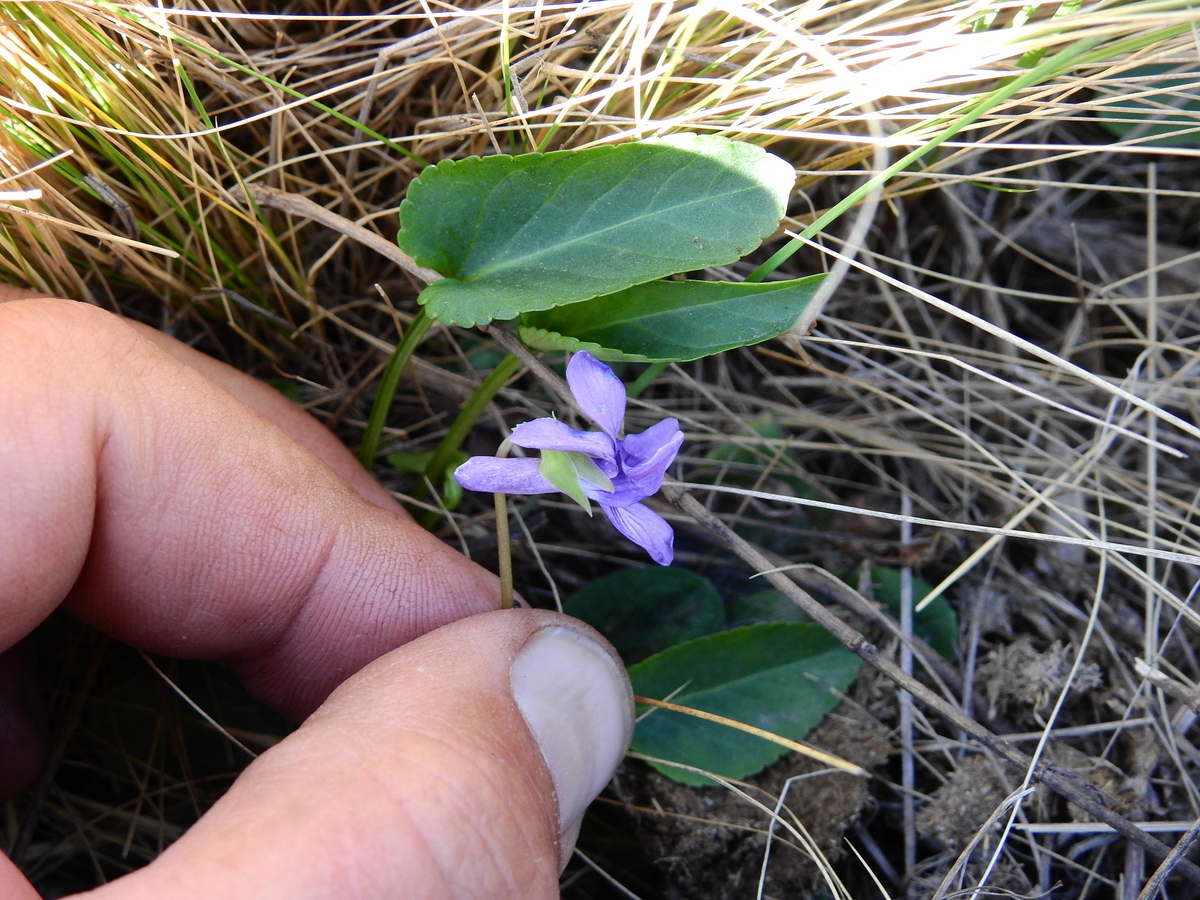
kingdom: Plantae
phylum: Tracheophyta
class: Magnoliopsida
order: Malpighiales
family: Violaceae
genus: Viola
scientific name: Viola hamiltoniana
